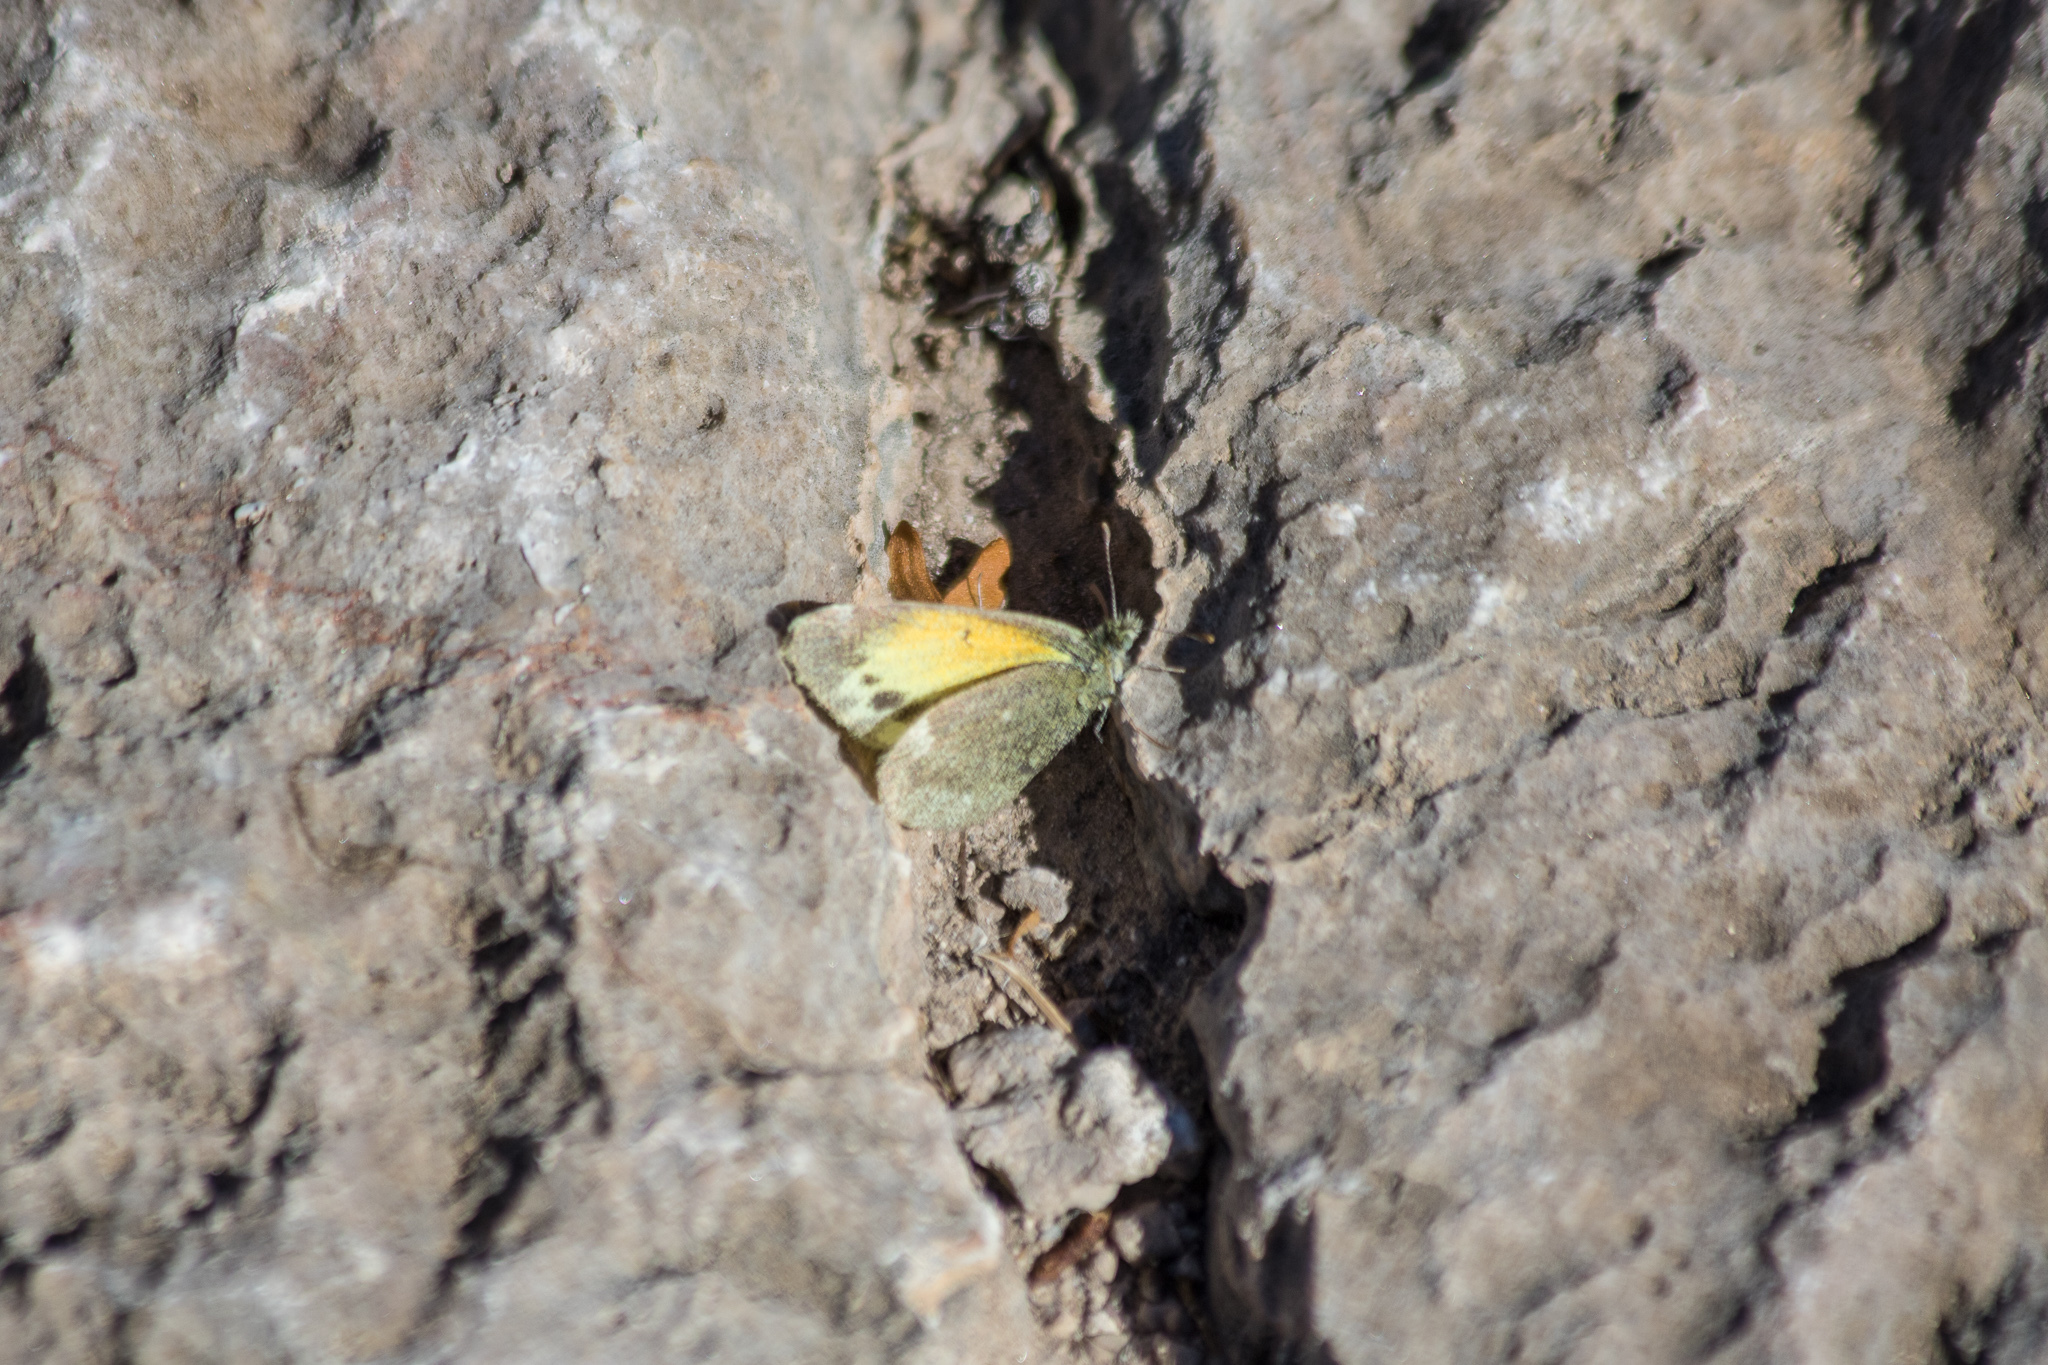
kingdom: Animalia
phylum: Arthropoda
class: Insecta
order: Lepidoptera
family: Pieridae
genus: Nathalis
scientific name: Nathalis iole
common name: Dainty sulphur
